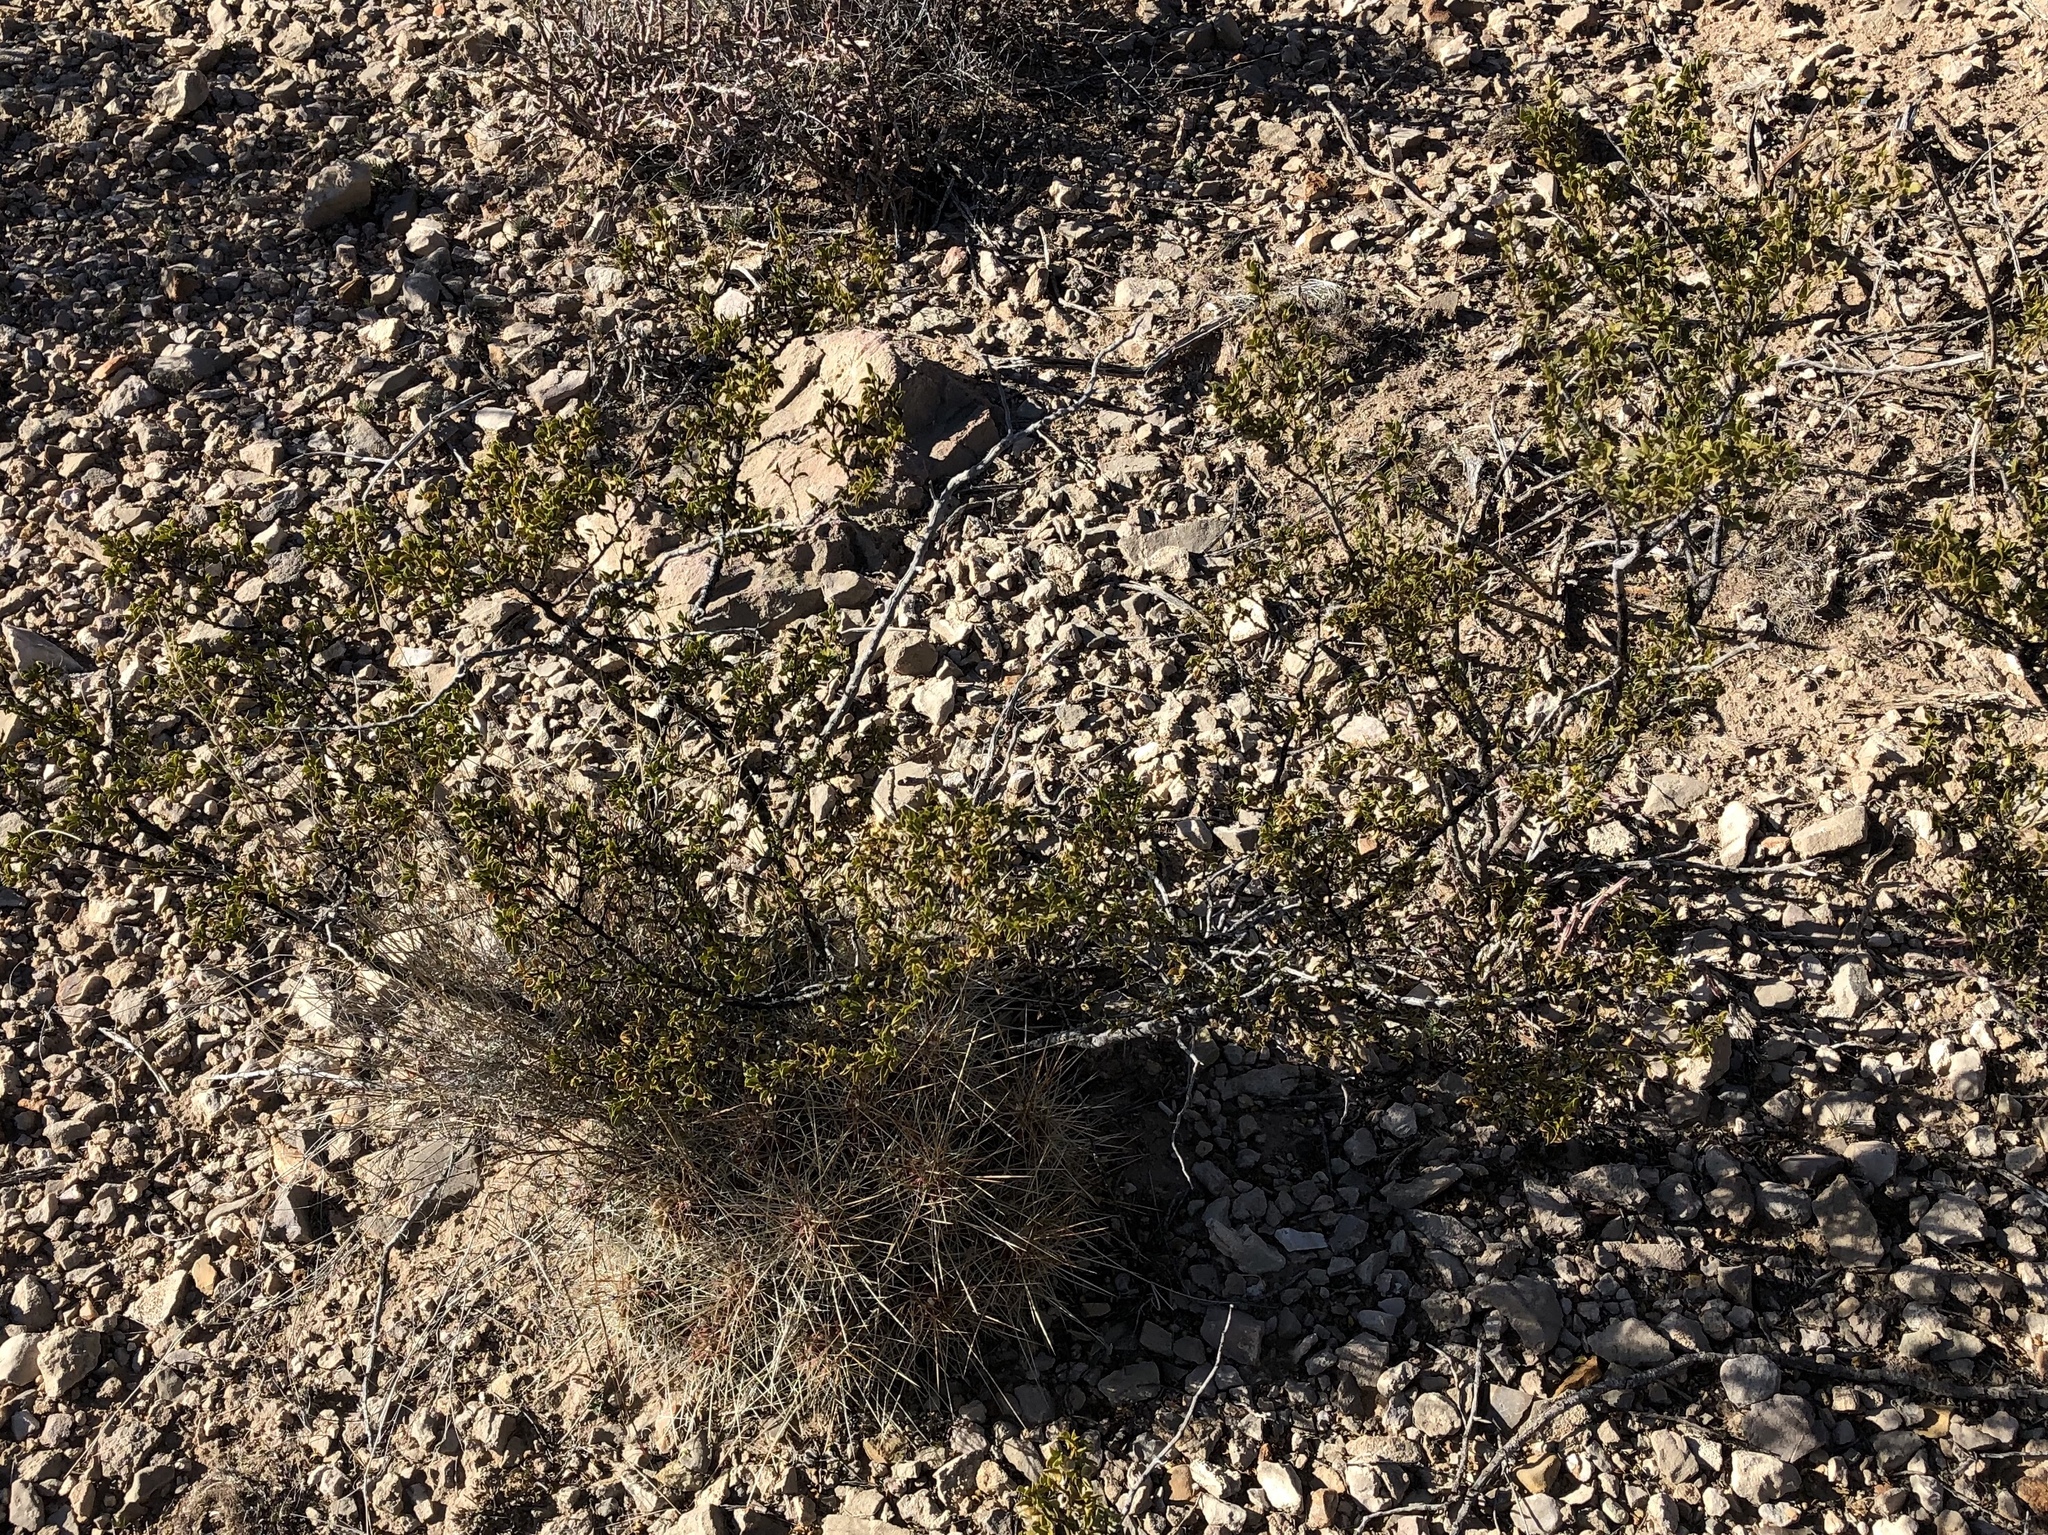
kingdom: Plantae
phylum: Tracheophyta
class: Magnoliopsida
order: Zygophyllales
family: Zygophyllaceae
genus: Larrea
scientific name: Larrea tridentata
